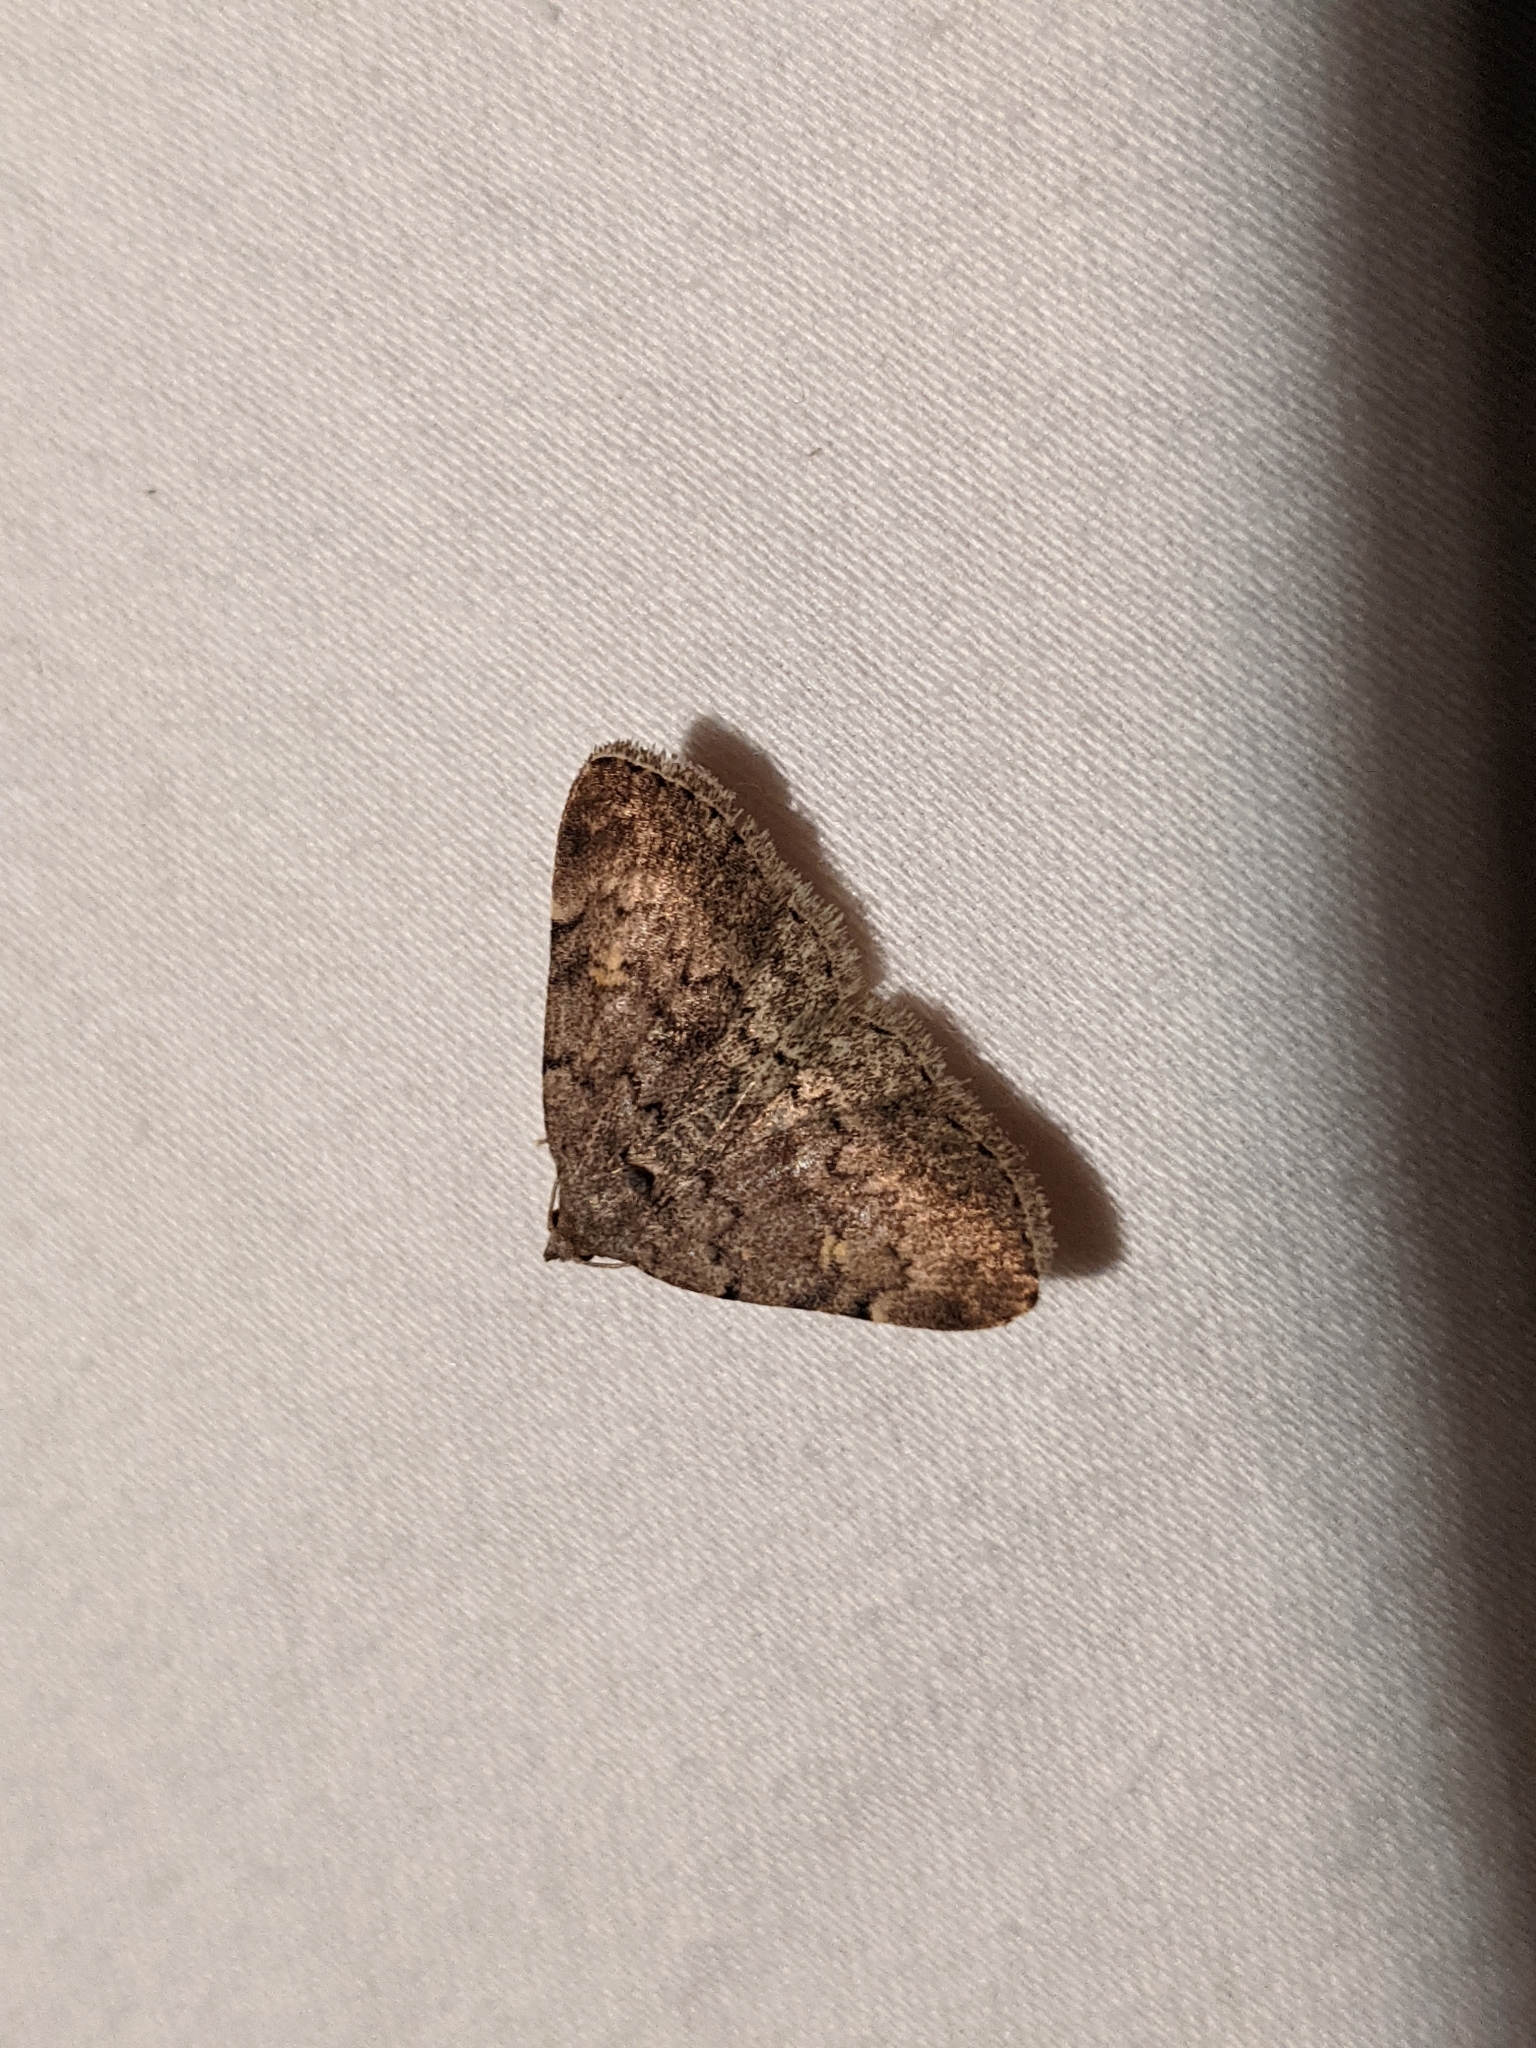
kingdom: Animalia
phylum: Arthropoda
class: Insecta
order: Lepidoptera
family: Erebidae
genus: Idia
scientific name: Idia aemula
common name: Common idia moth
